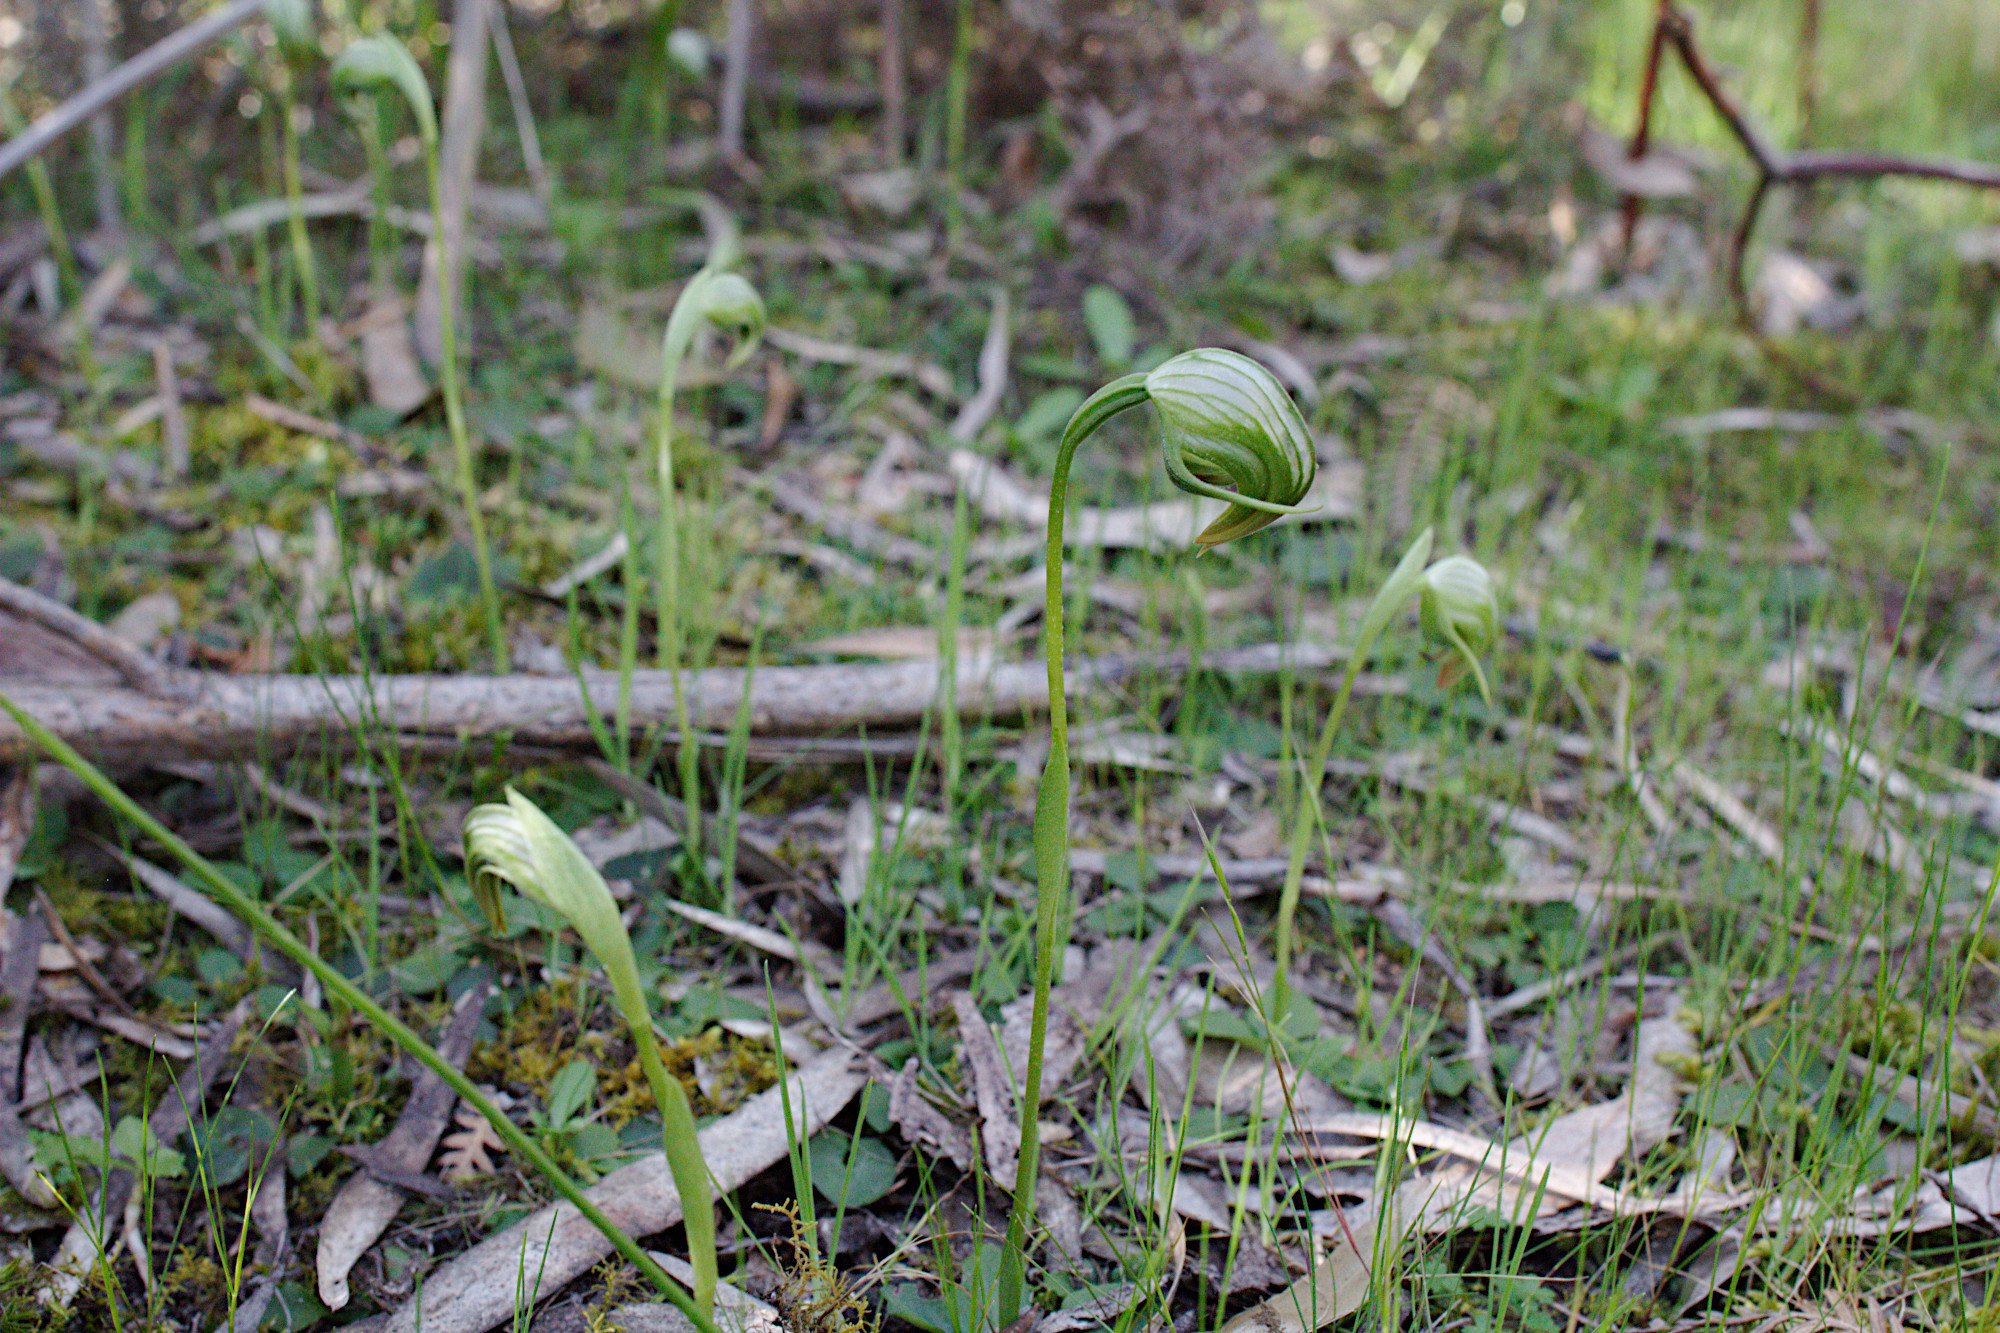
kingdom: Plantae
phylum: Tracheophyta
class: Liliopsida
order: Asparagales
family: Orchidaceae
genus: Pterostylis
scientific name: Pterostylis nutans
